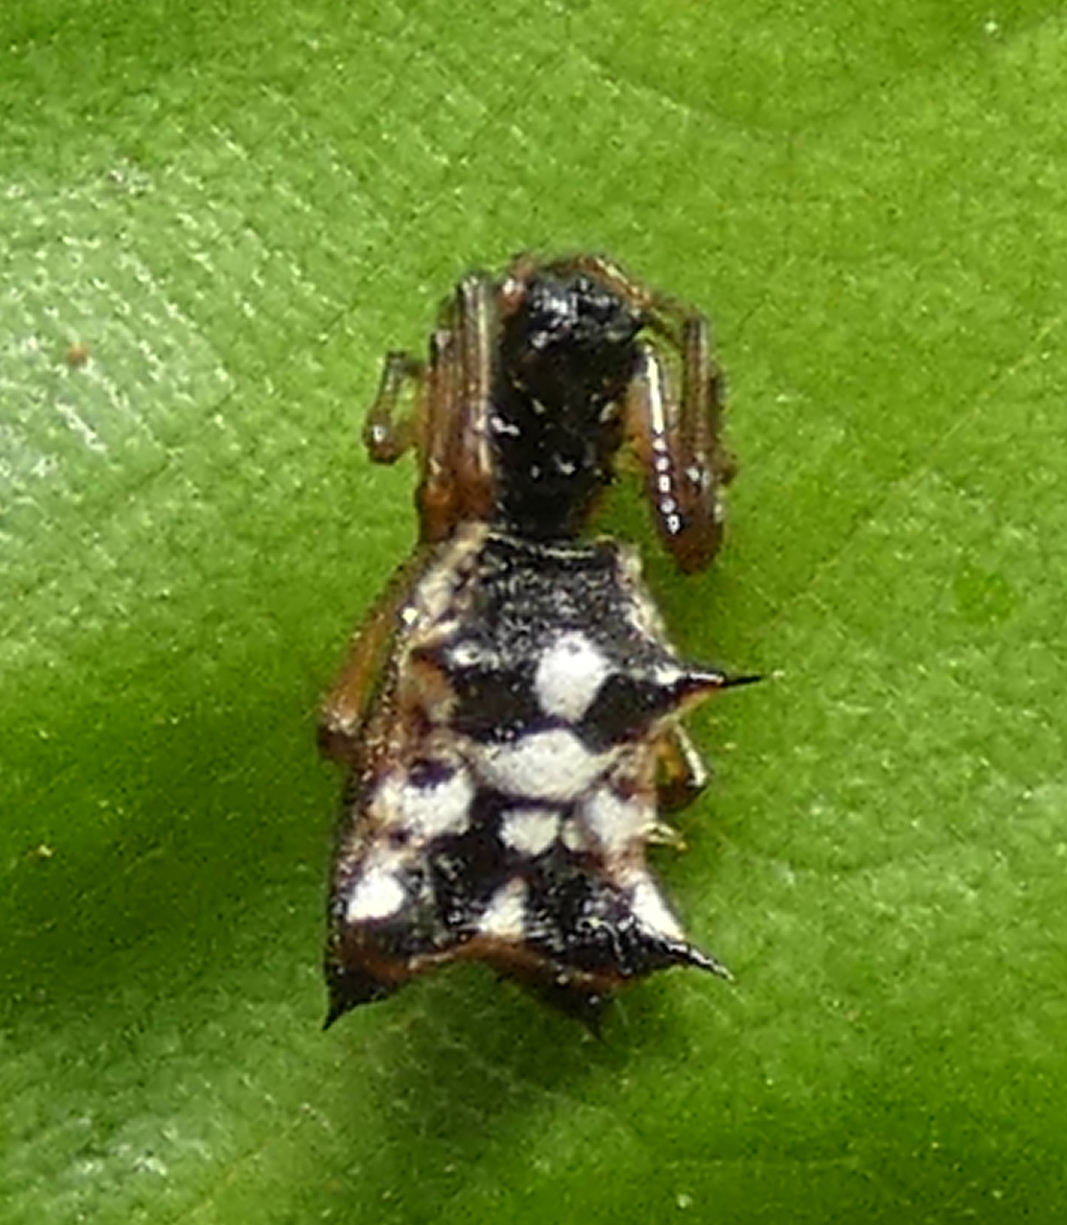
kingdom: Animalia
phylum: Arthropoda
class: Arachnida
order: Araneae
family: Araneidae
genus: Micrathena
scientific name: Micrathena picta
